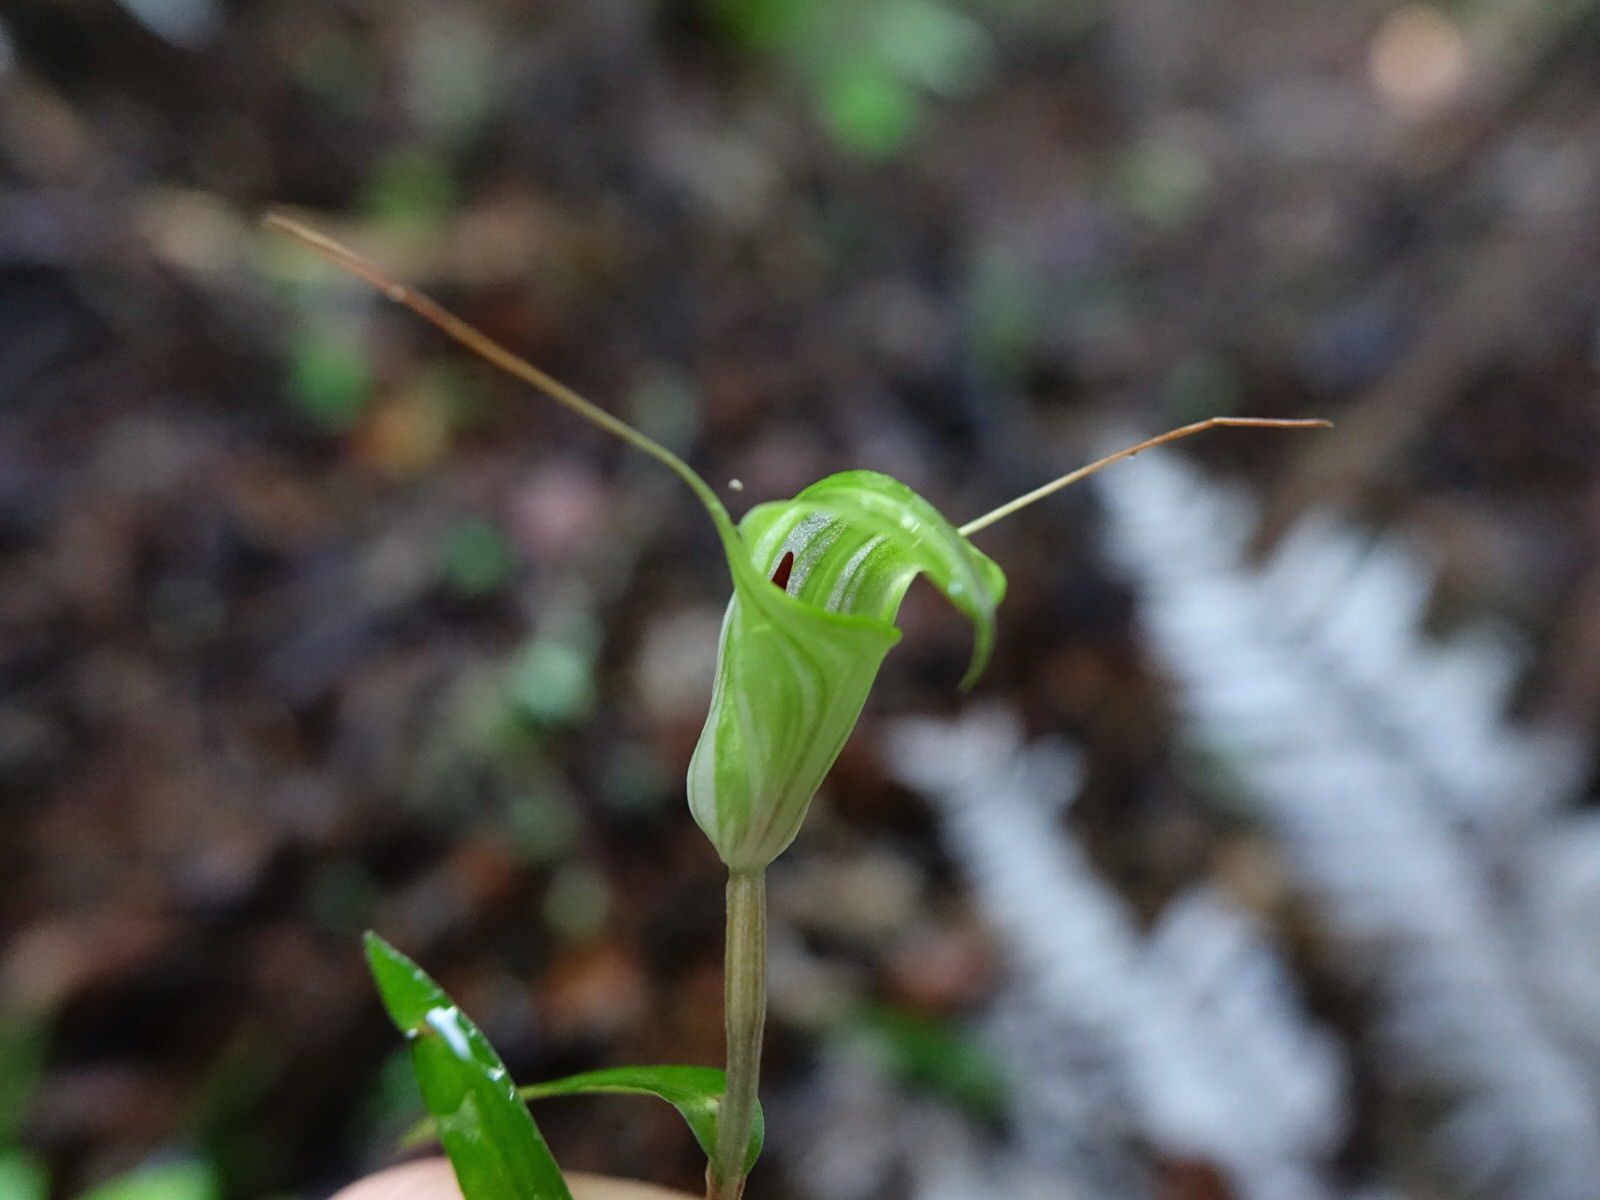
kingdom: Plantae
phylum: Tracheophyta
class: Liliopsida
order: Asparagales
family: Orchidaceae
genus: Pterostylis
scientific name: Pterostylis brumalis
